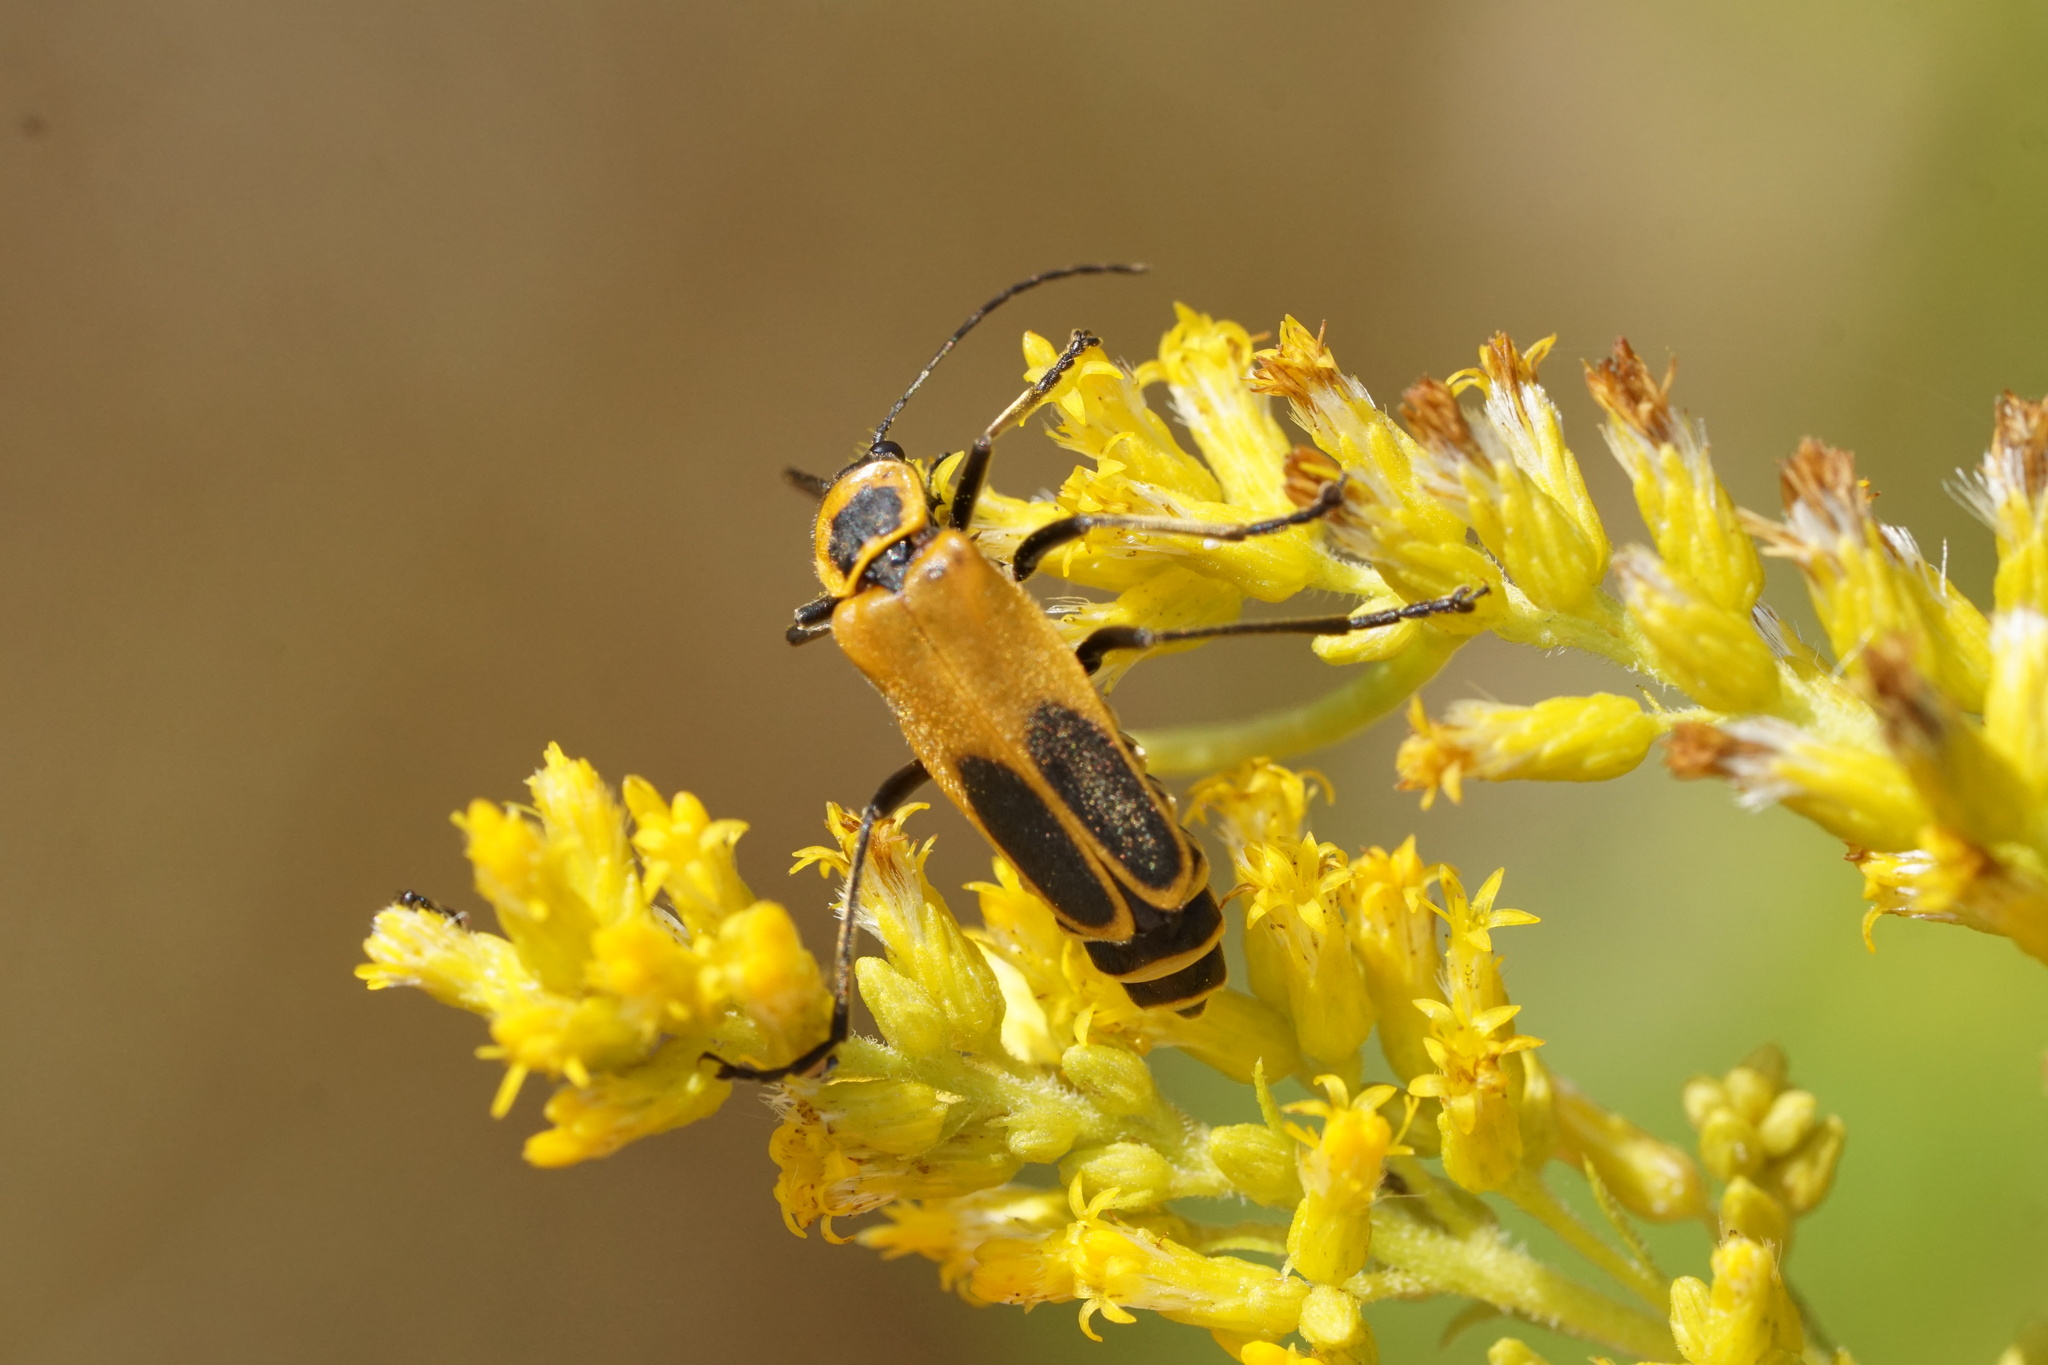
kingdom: Animalia
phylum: Arthropoda
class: Insecta
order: Coleoptera
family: Cantharidae
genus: Chauliognathus
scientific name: Chauliognathus pensylvanicus
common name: Goldenrod soldier beetle
